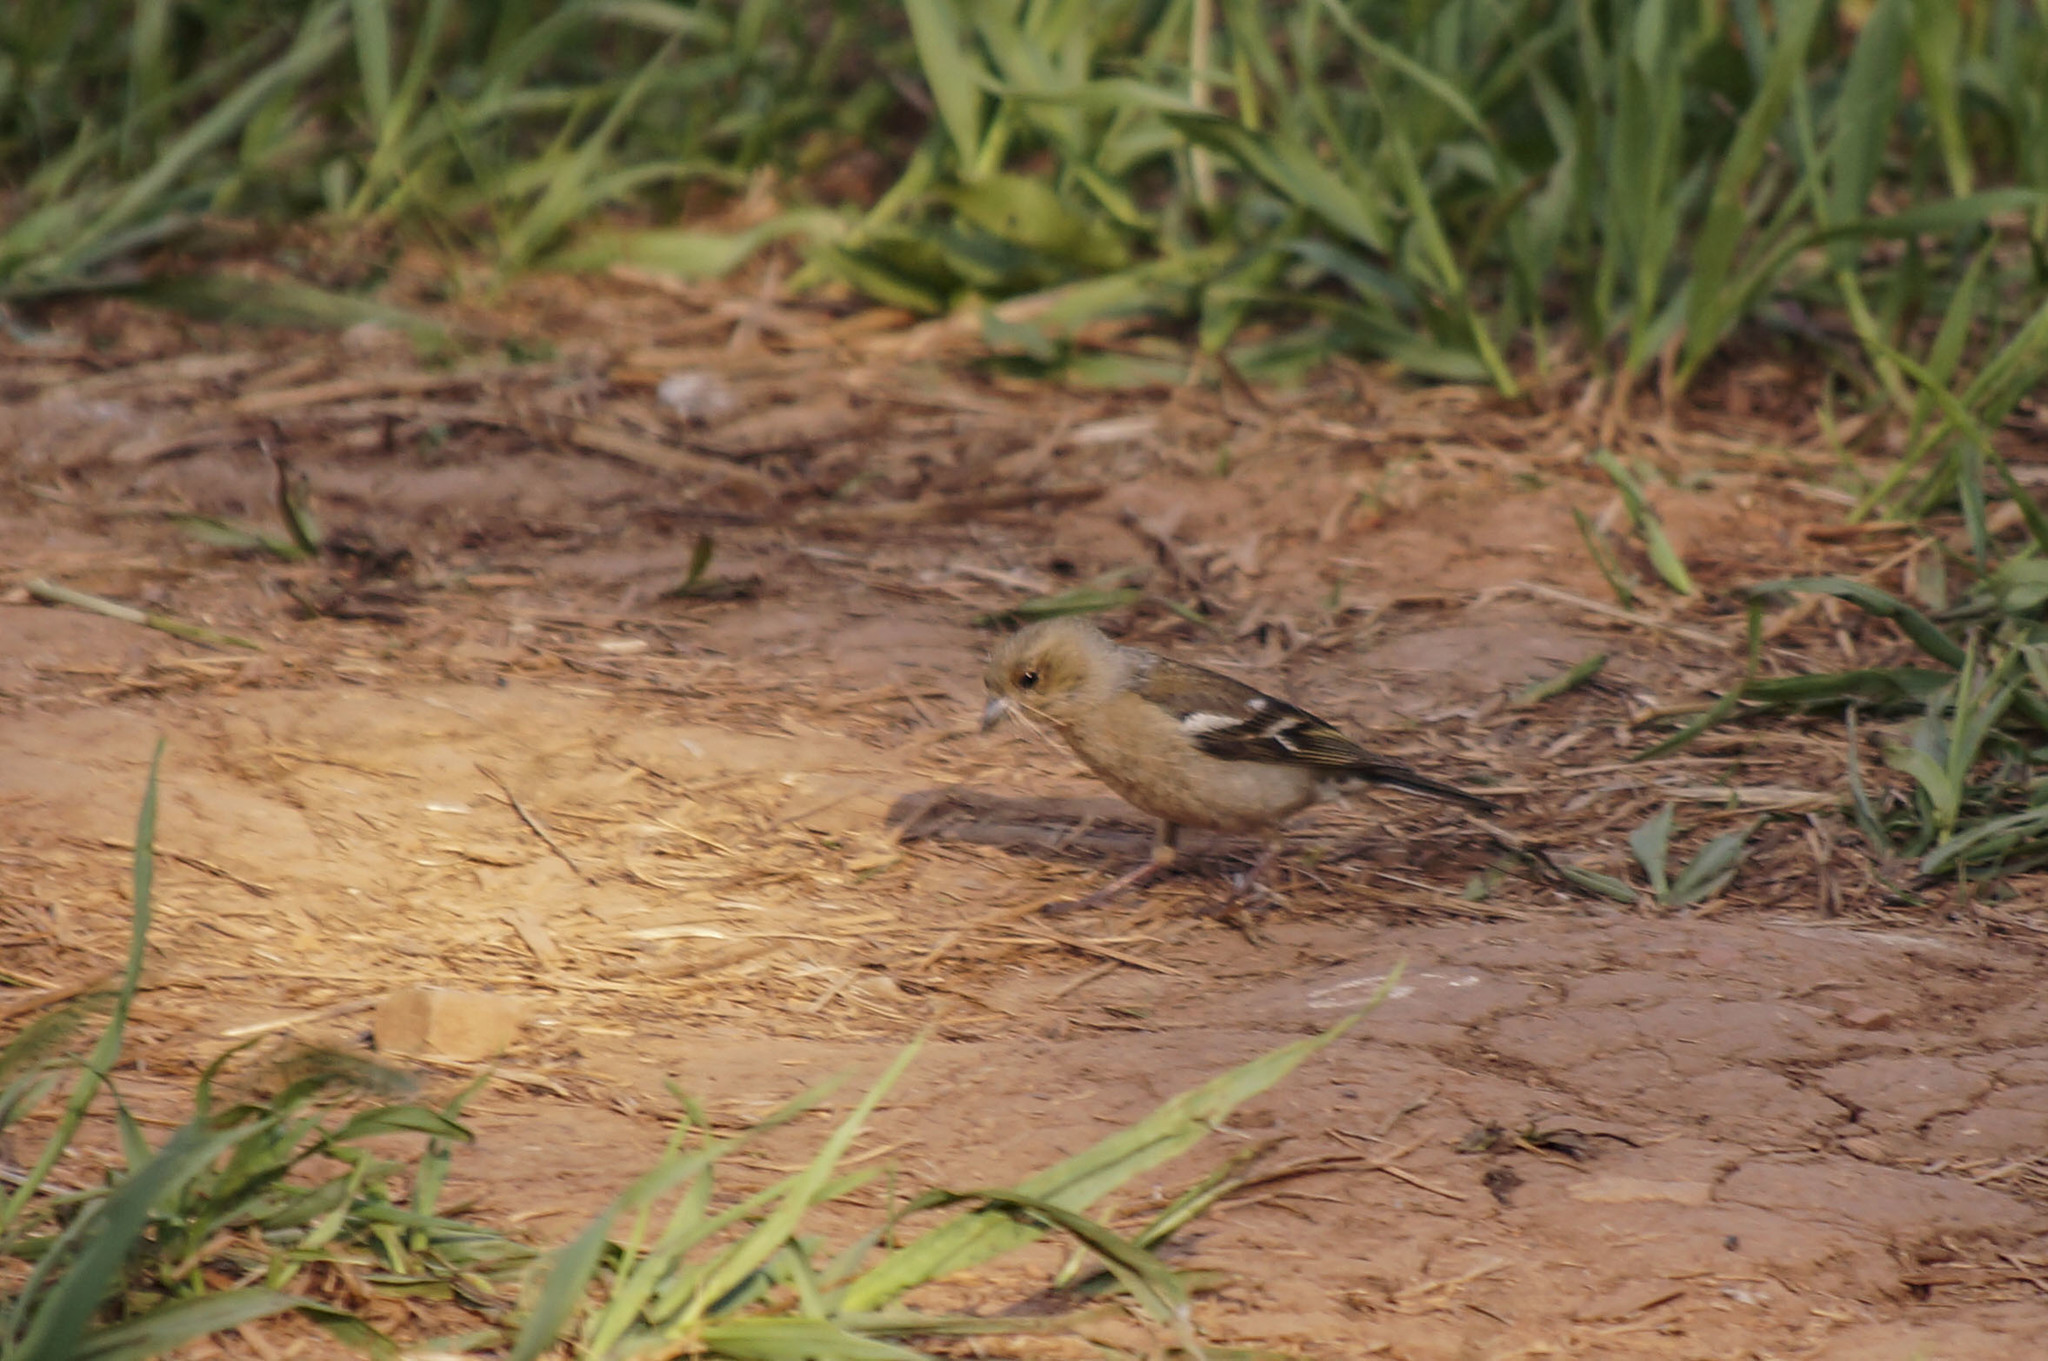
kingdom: Animalia
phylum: Chordata
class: Aves
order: Passeriformes
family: Fringillidae
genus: Fringilla
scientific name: Fringilla coelebs
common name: Common chaffinch
